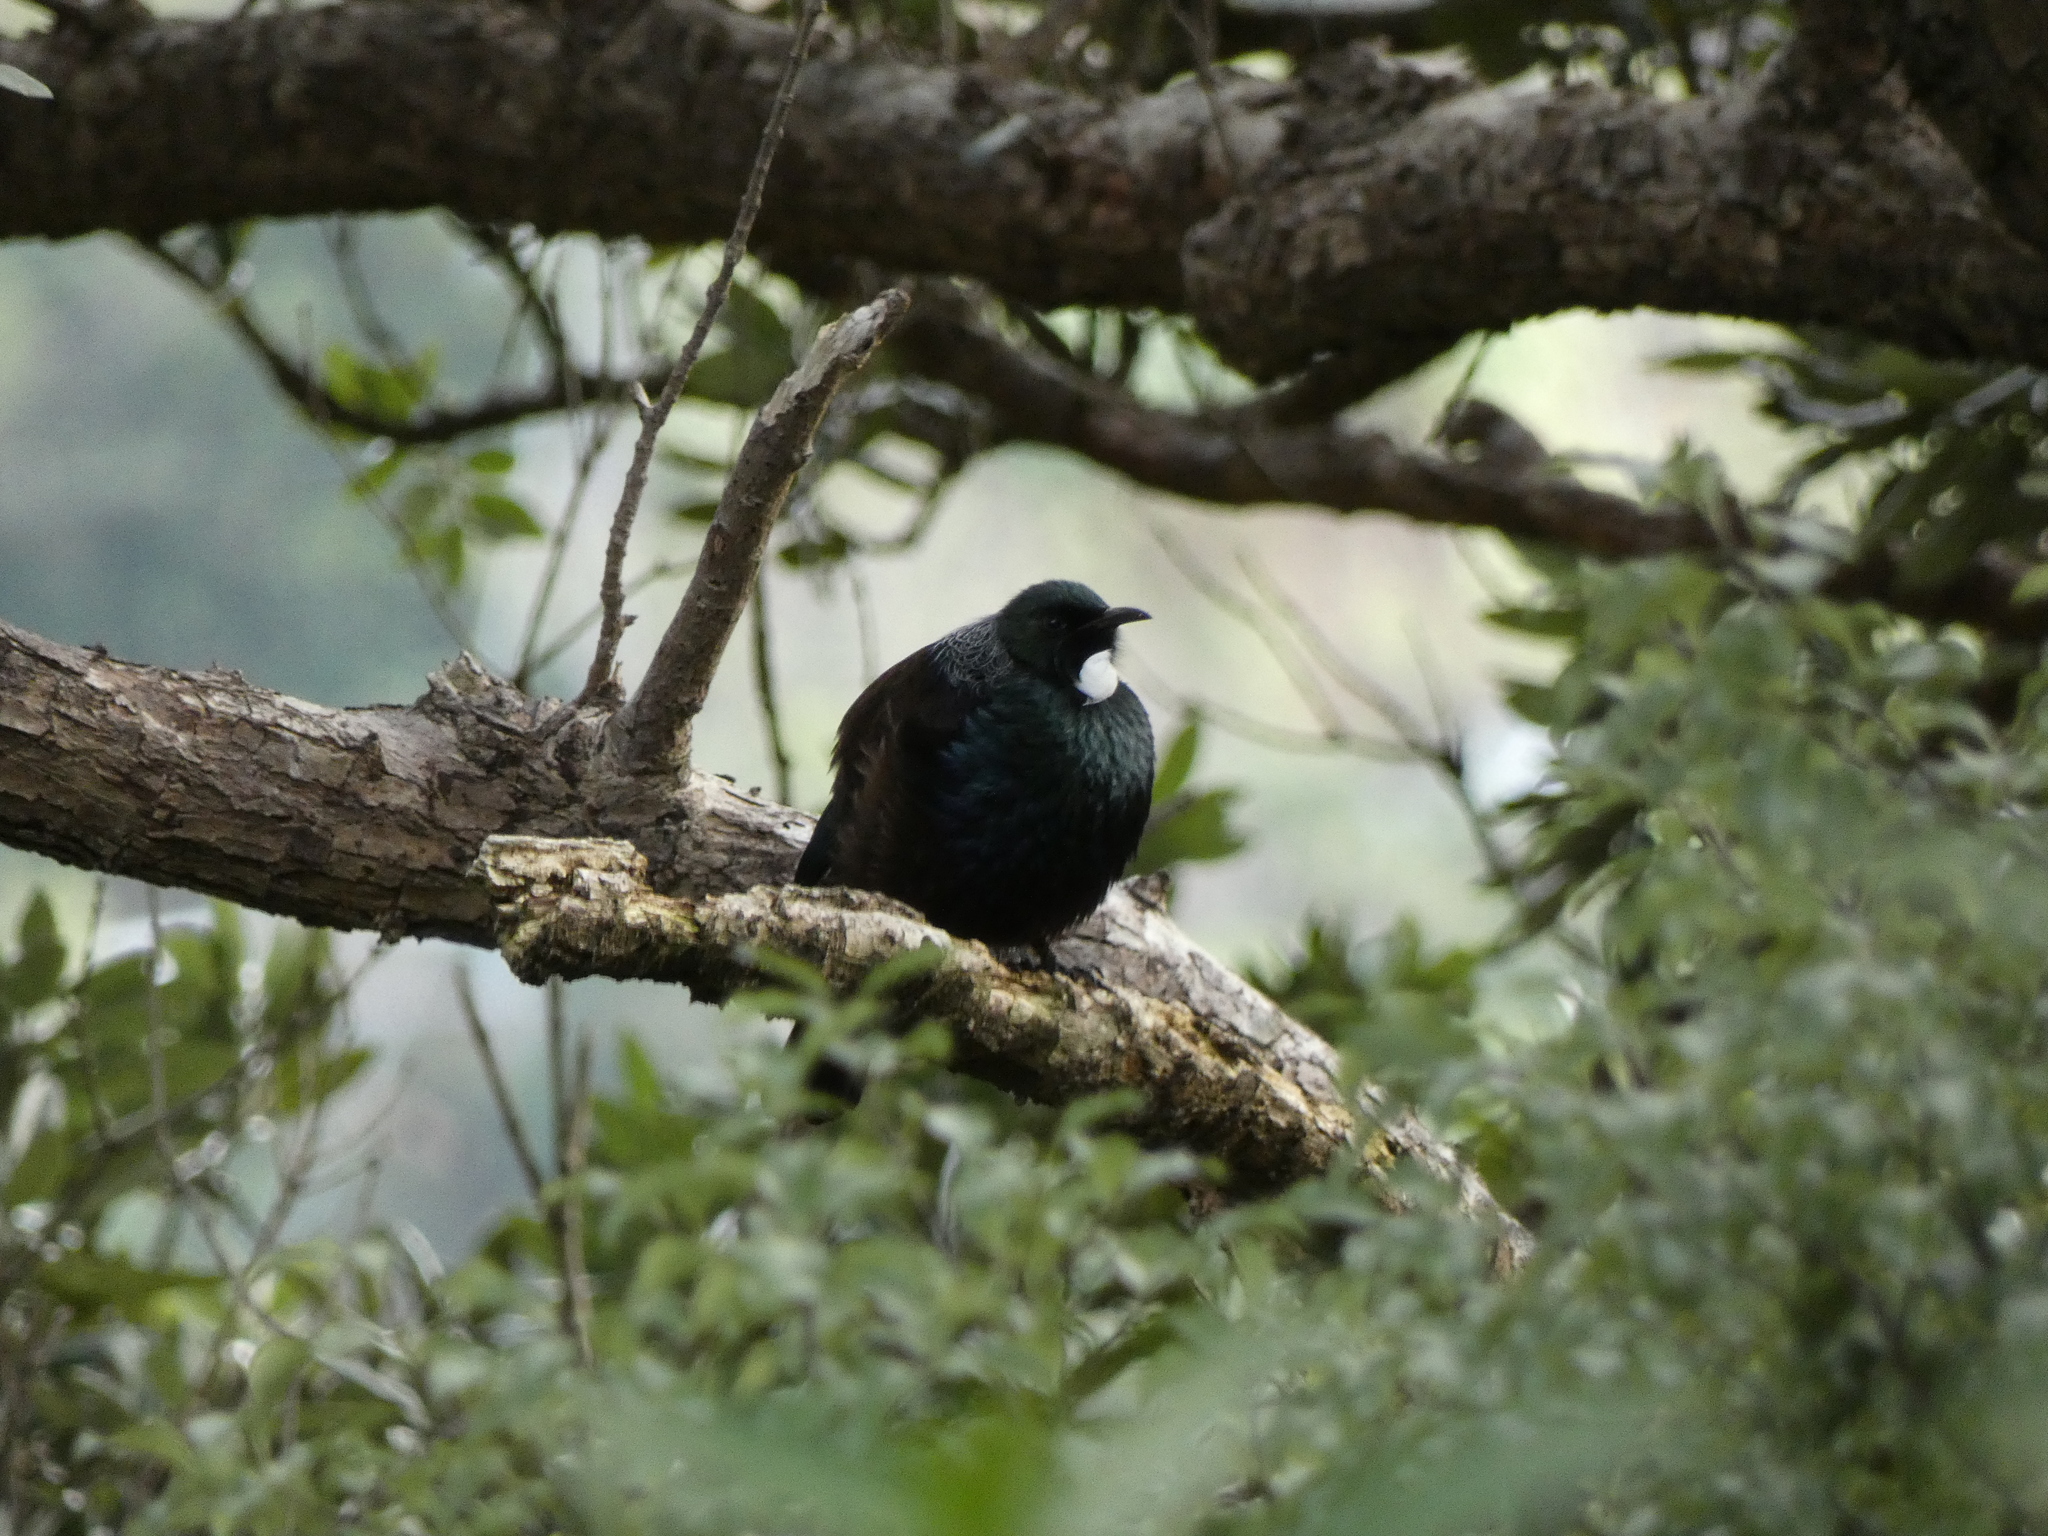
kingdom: Animalia
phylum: Chordata
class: Aves
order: Passeriformes
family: Meliphagidae
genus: Prosthemadera
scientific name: Prosthemadera novaeseelandiae
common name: Tui
